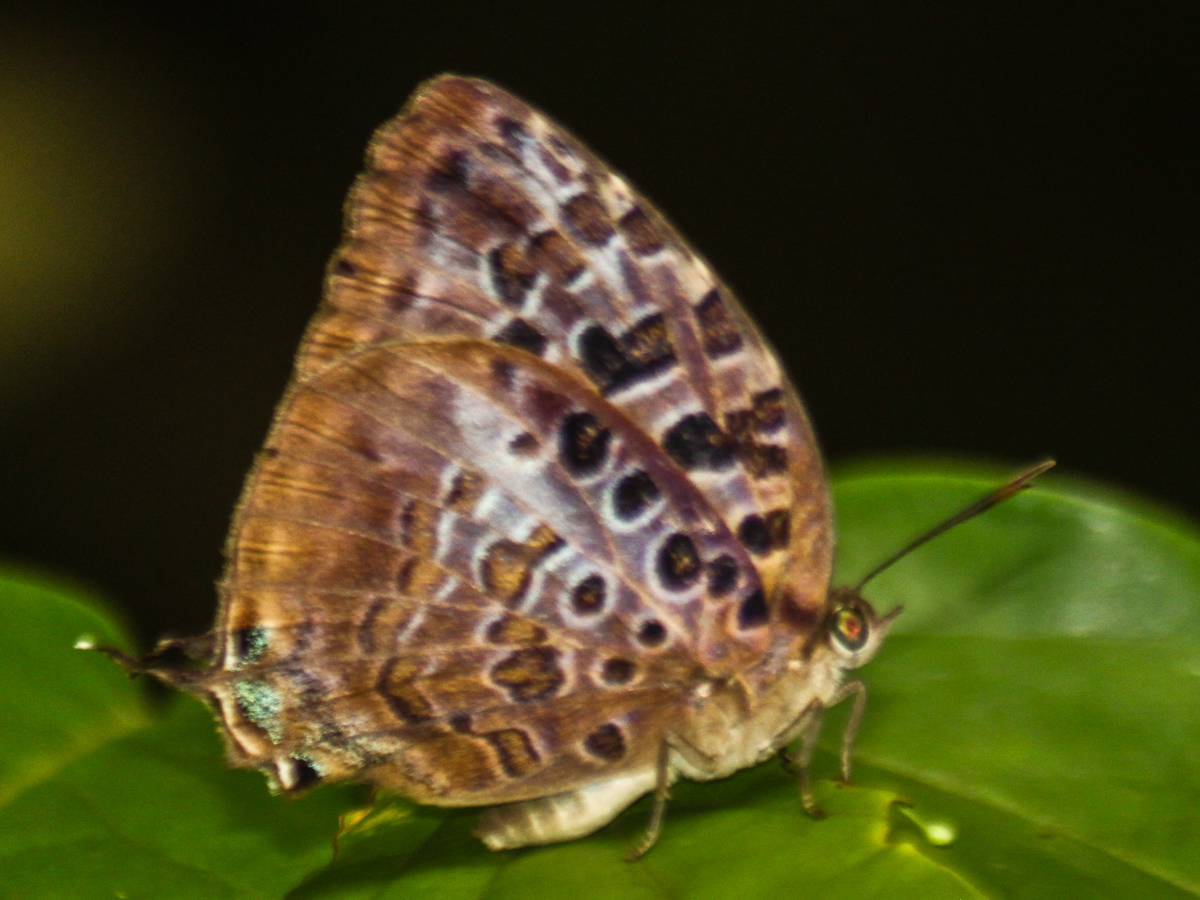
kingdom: Animalia
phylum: Arthropoda
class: Insecta
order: Lepidoptera
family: Lycaenidae
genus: Arhopala
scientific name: Arhopala anthelus
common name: Bushblue
